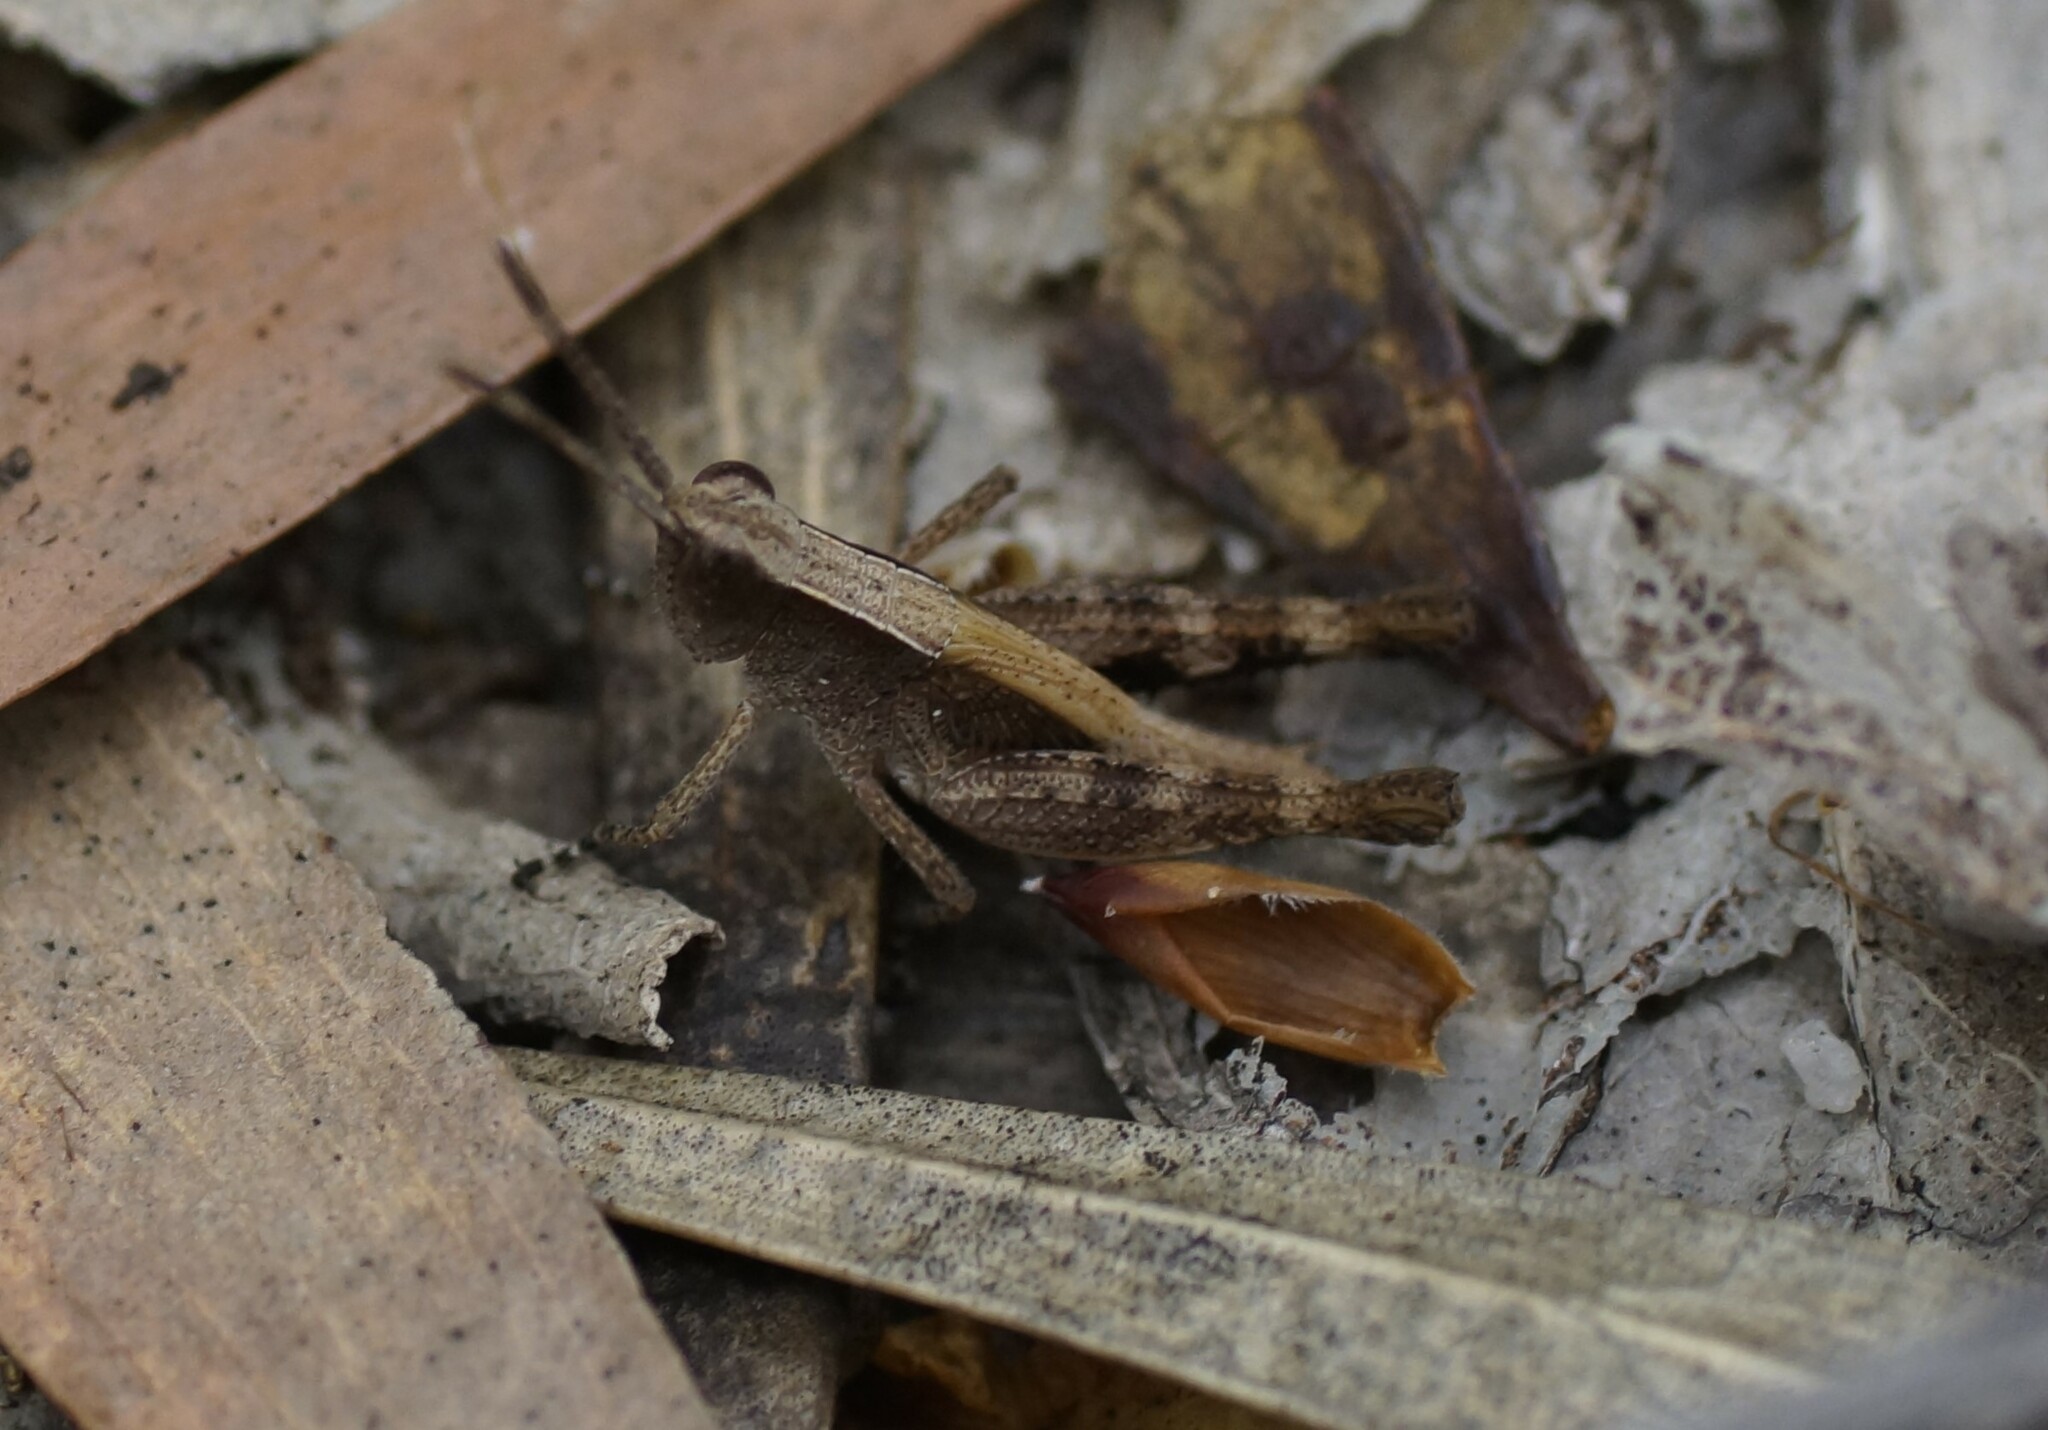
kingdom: Animalia
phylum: Arthropoda
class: Insecta
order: Orthoptera
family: Acrididae
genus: Rectitropis
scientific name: Rectitropis australis
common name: Queensland white-tips
